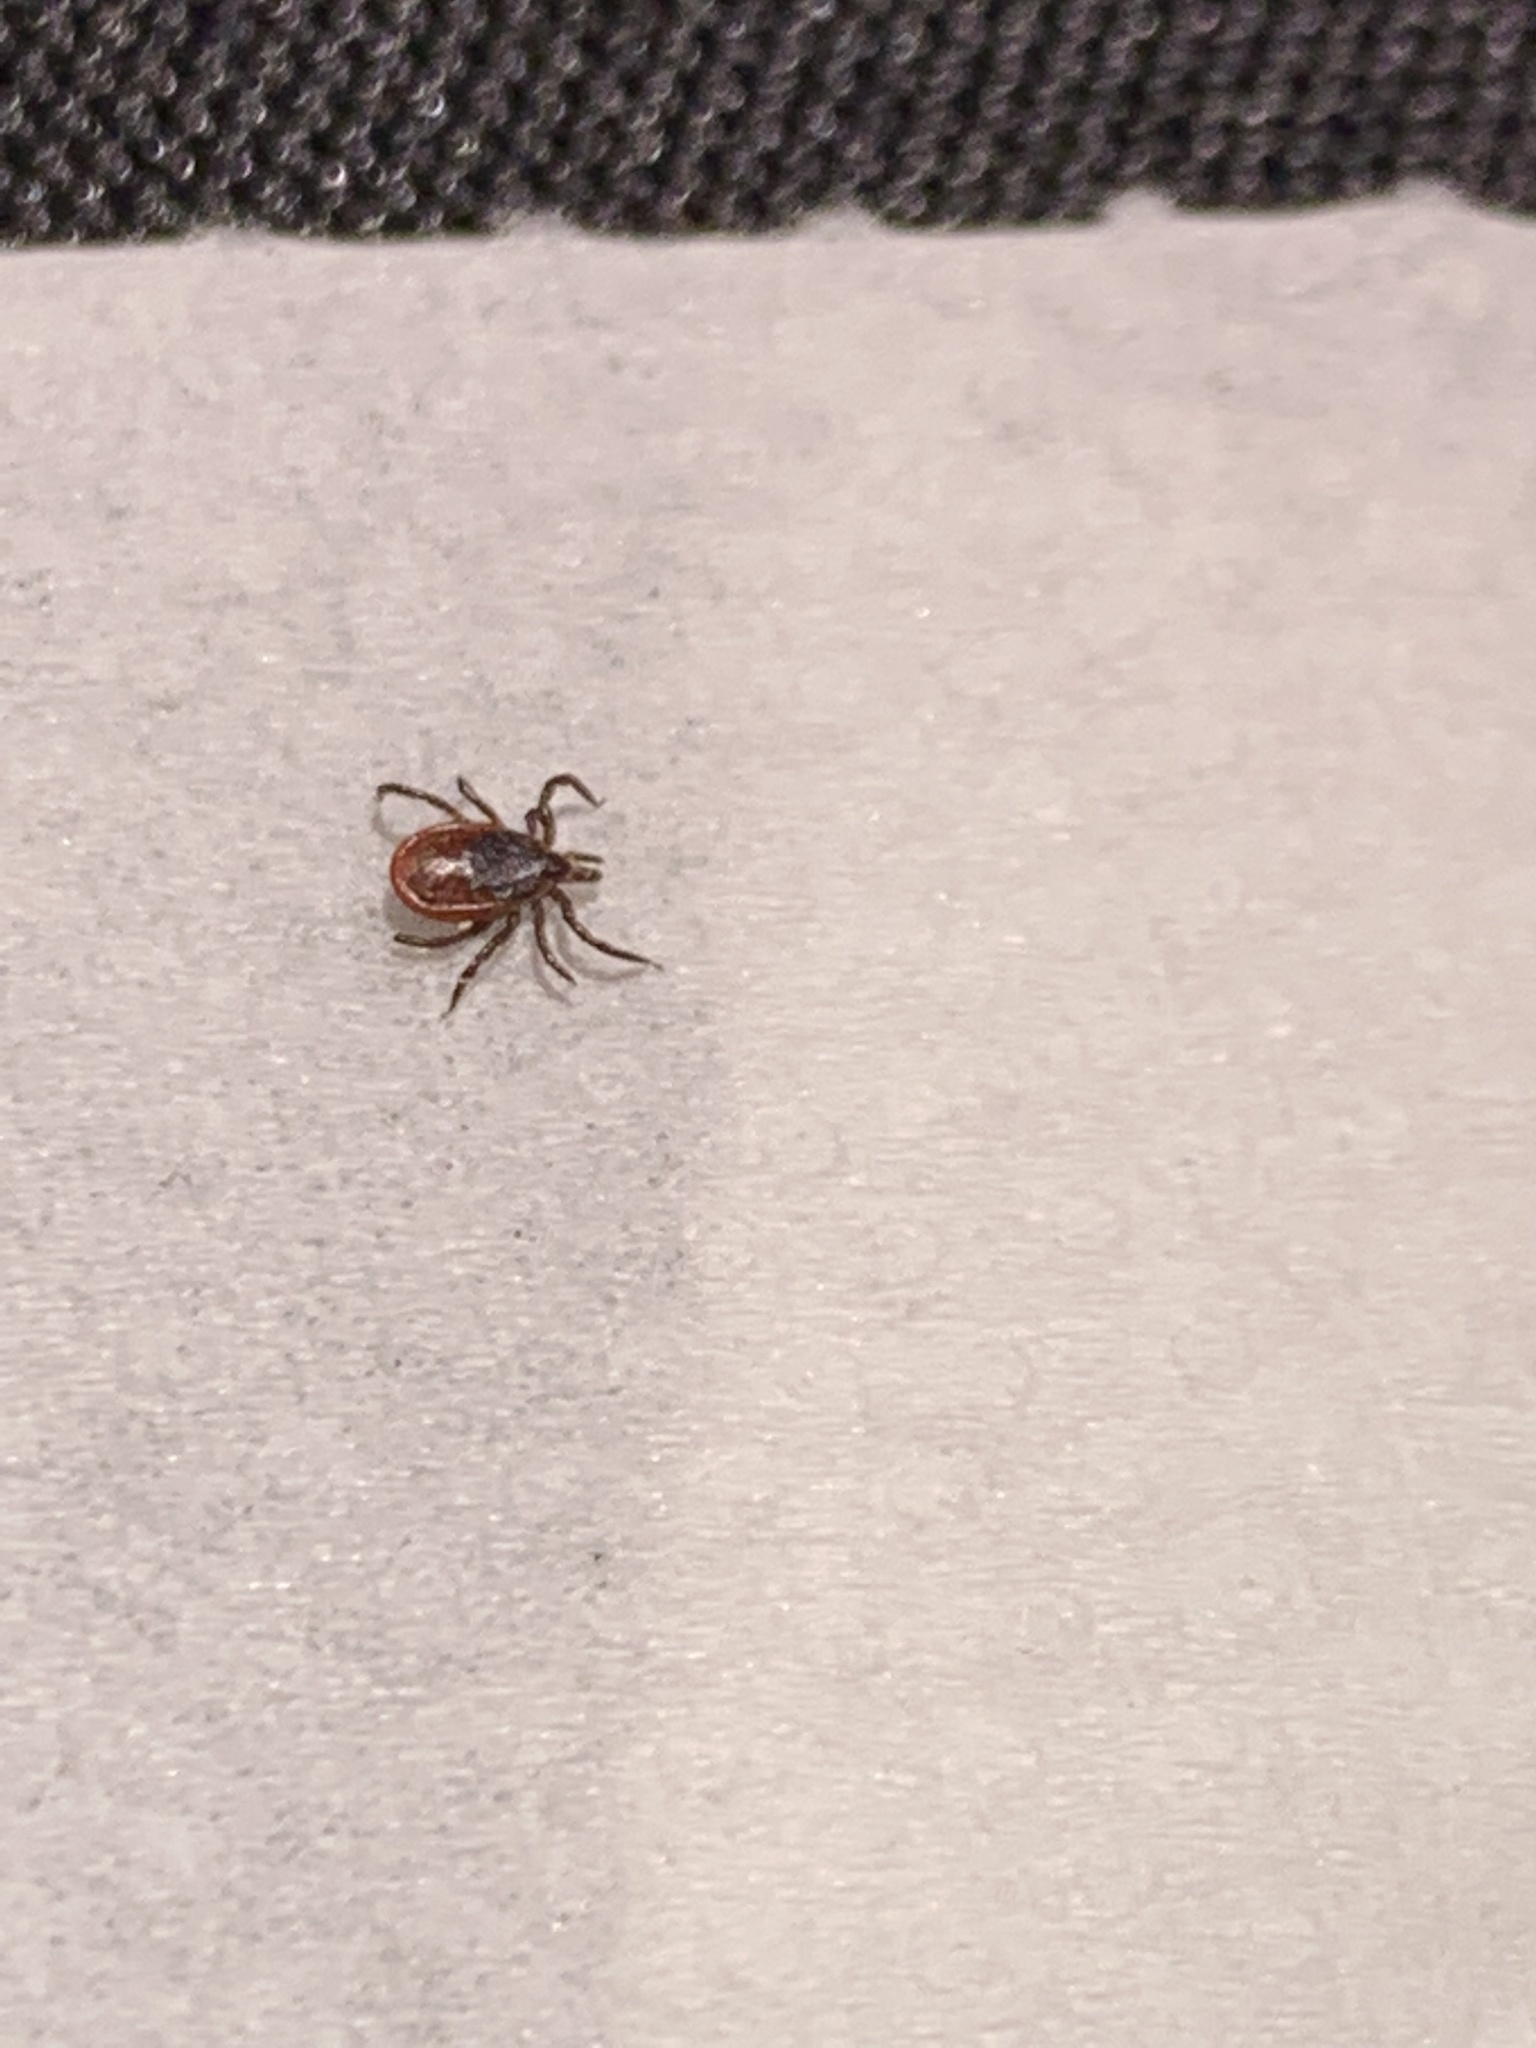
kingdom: Animalia
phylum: Arthropoda
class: Arachnida
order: Ixodida
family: Ixodidae
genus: Ixodes
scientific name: Ixodes scapularis
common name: Black legged tick
